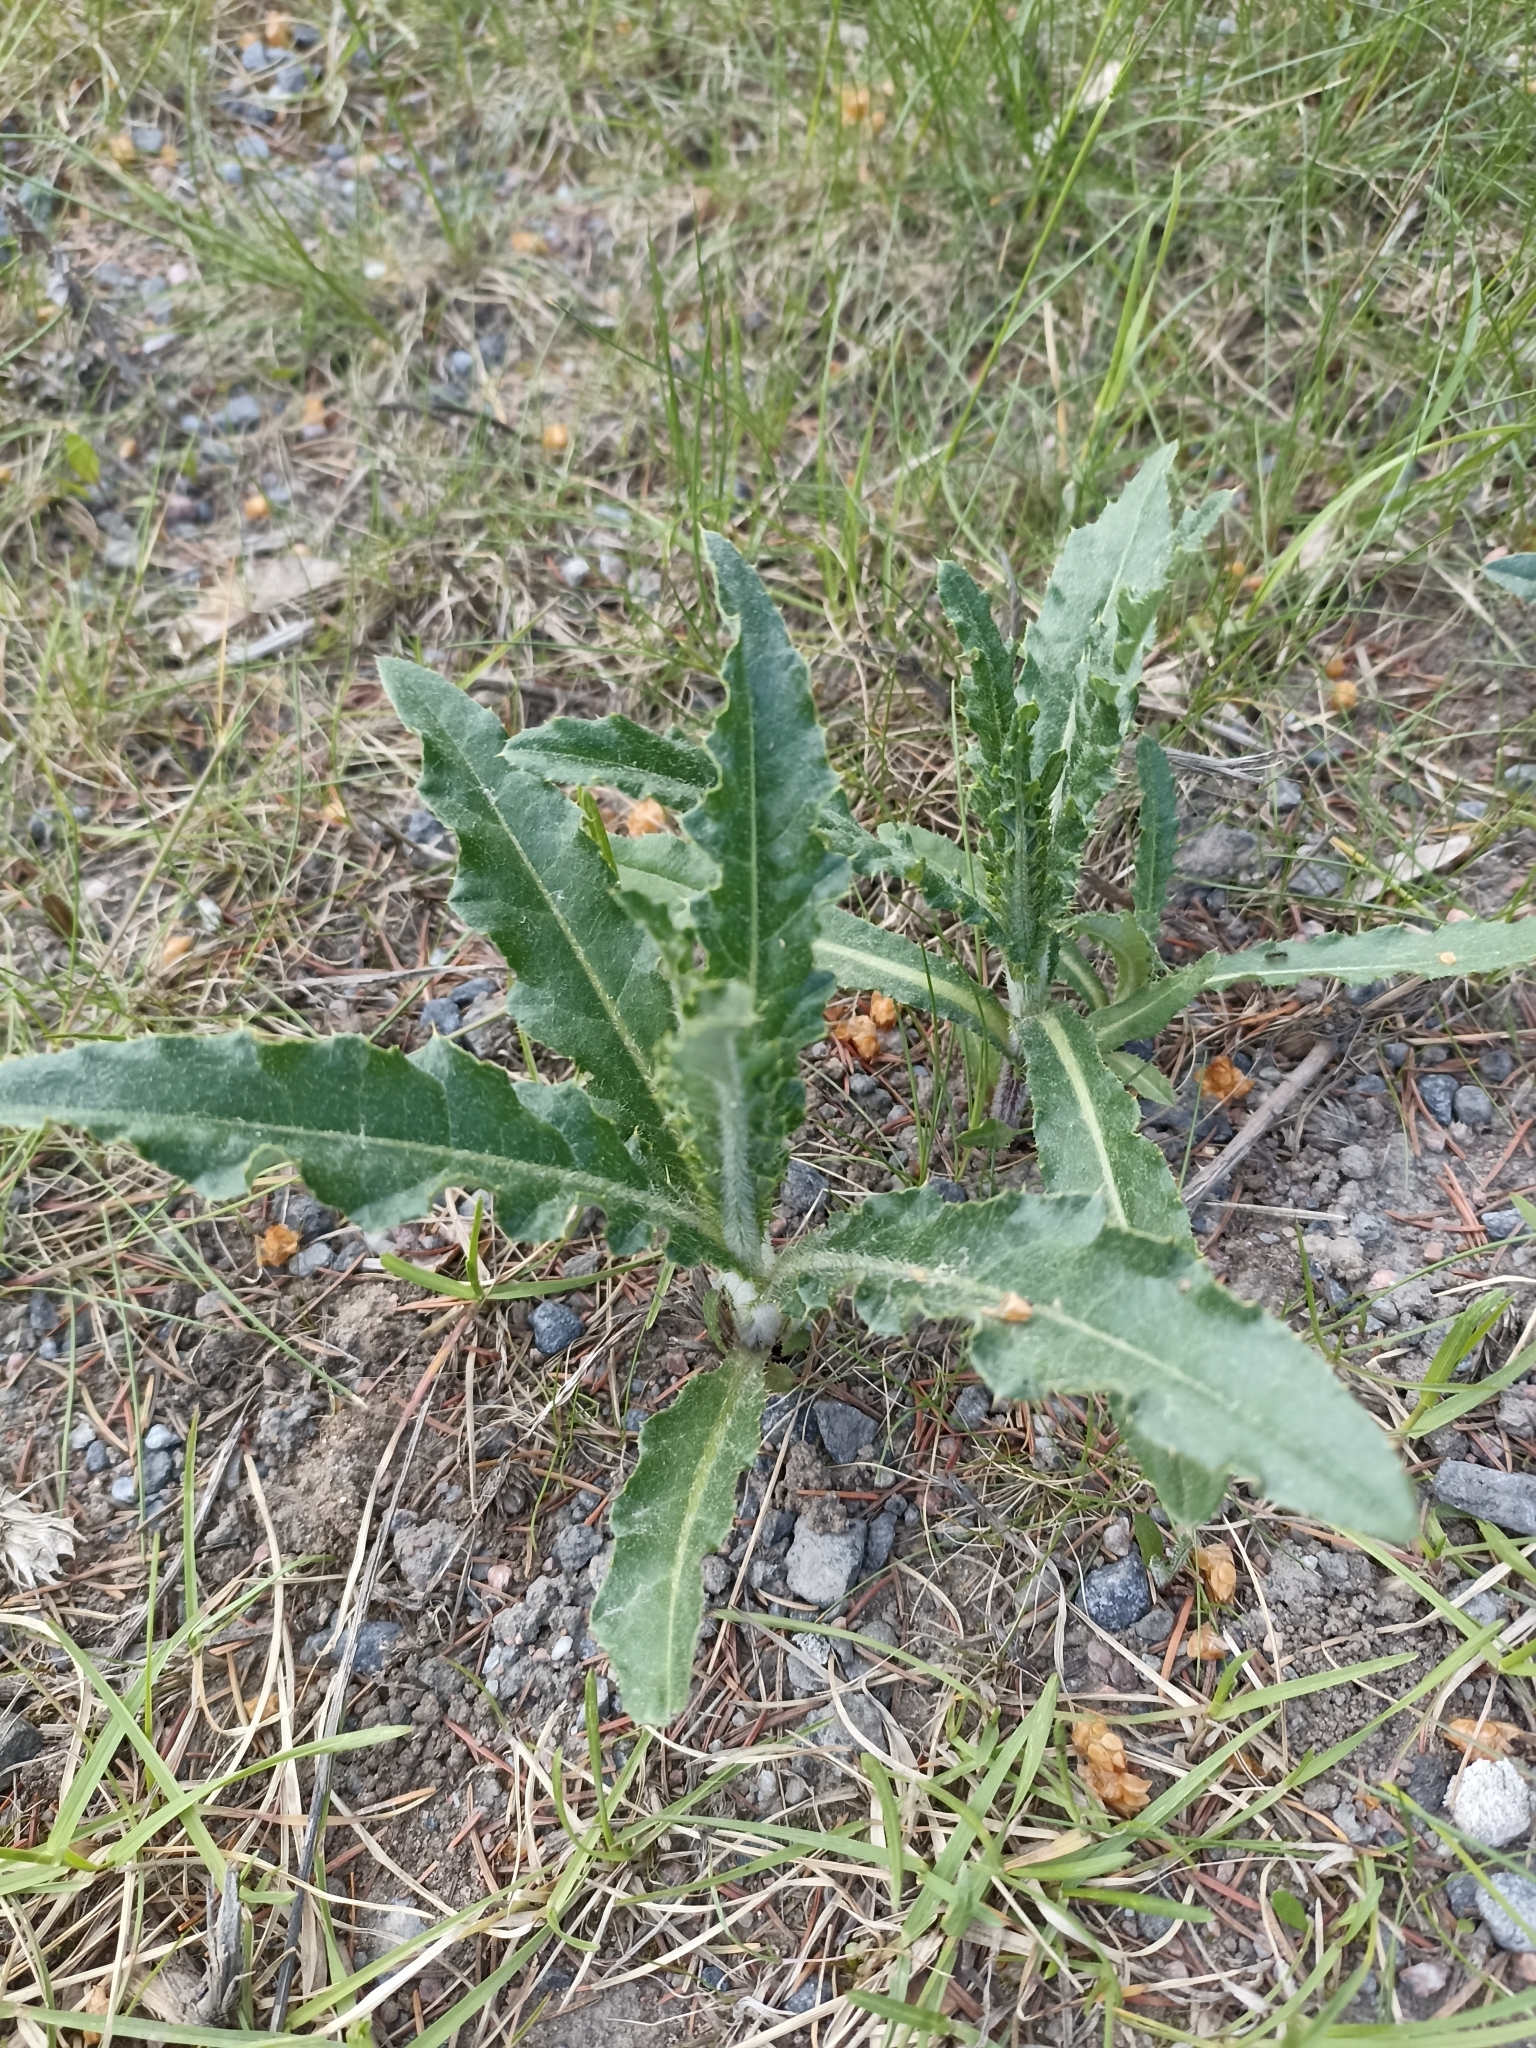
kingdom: Plantae
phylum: Tracheophyta
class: Magnoliopsida
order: Asterales
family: Asteraceae
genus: Cirsium
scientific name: Cirsium arvense
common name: Creeping thistle
